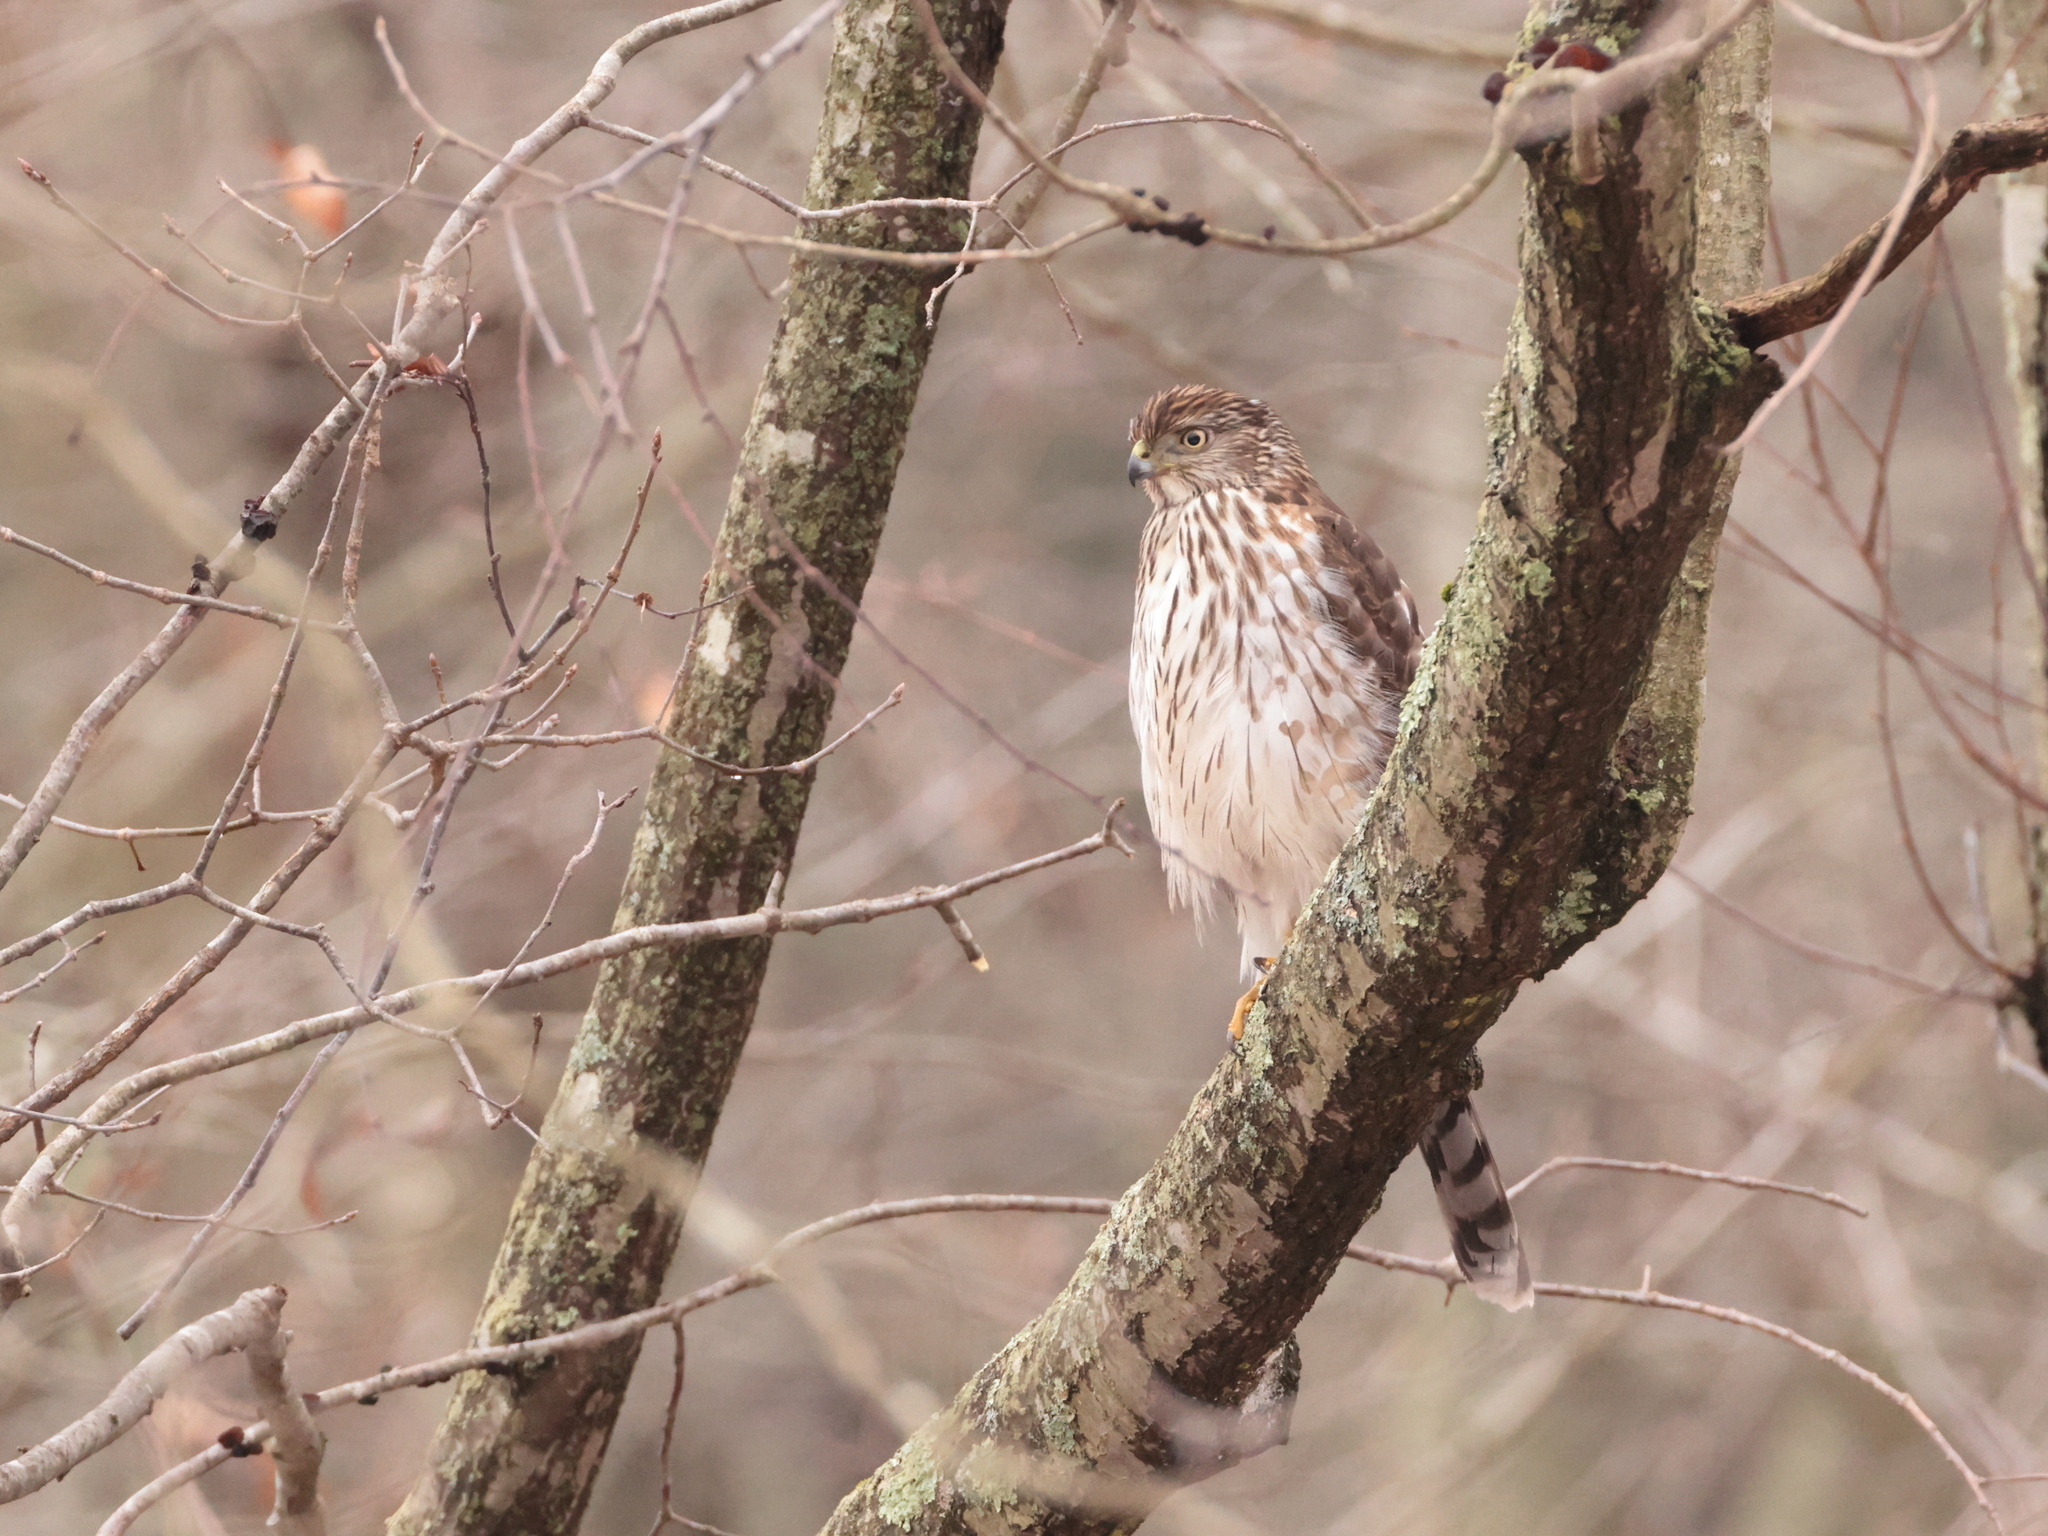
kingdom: Animalia
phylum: Chordata
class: Aves
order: Accipitriformes
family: Accipitridae
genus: Accipiter
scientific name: Accipiter cooperii
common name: Cooper's hawk
